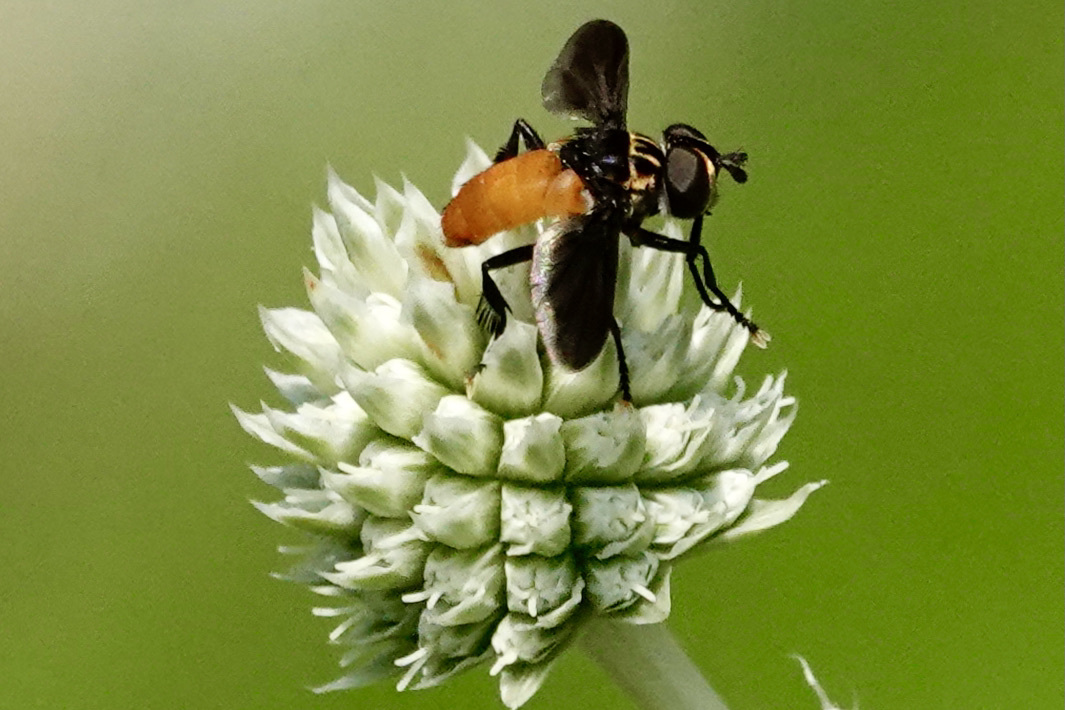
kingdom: Animalia
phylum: Arthropoda
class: Insecta
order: Diptera
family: Tachinidae
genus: Trichopoda
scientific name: Trichopoda pennipes
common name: Tachinid fly
